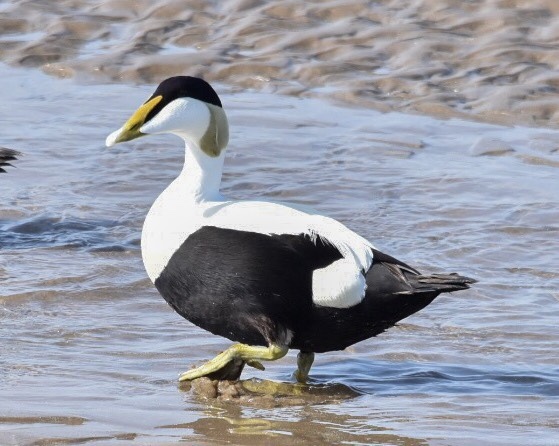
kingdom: Animalia
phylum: Chordata
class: Aves
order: Anseriformes
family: Anatidae
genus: Somateria
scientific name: Somateria mollissima
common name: Common eider
